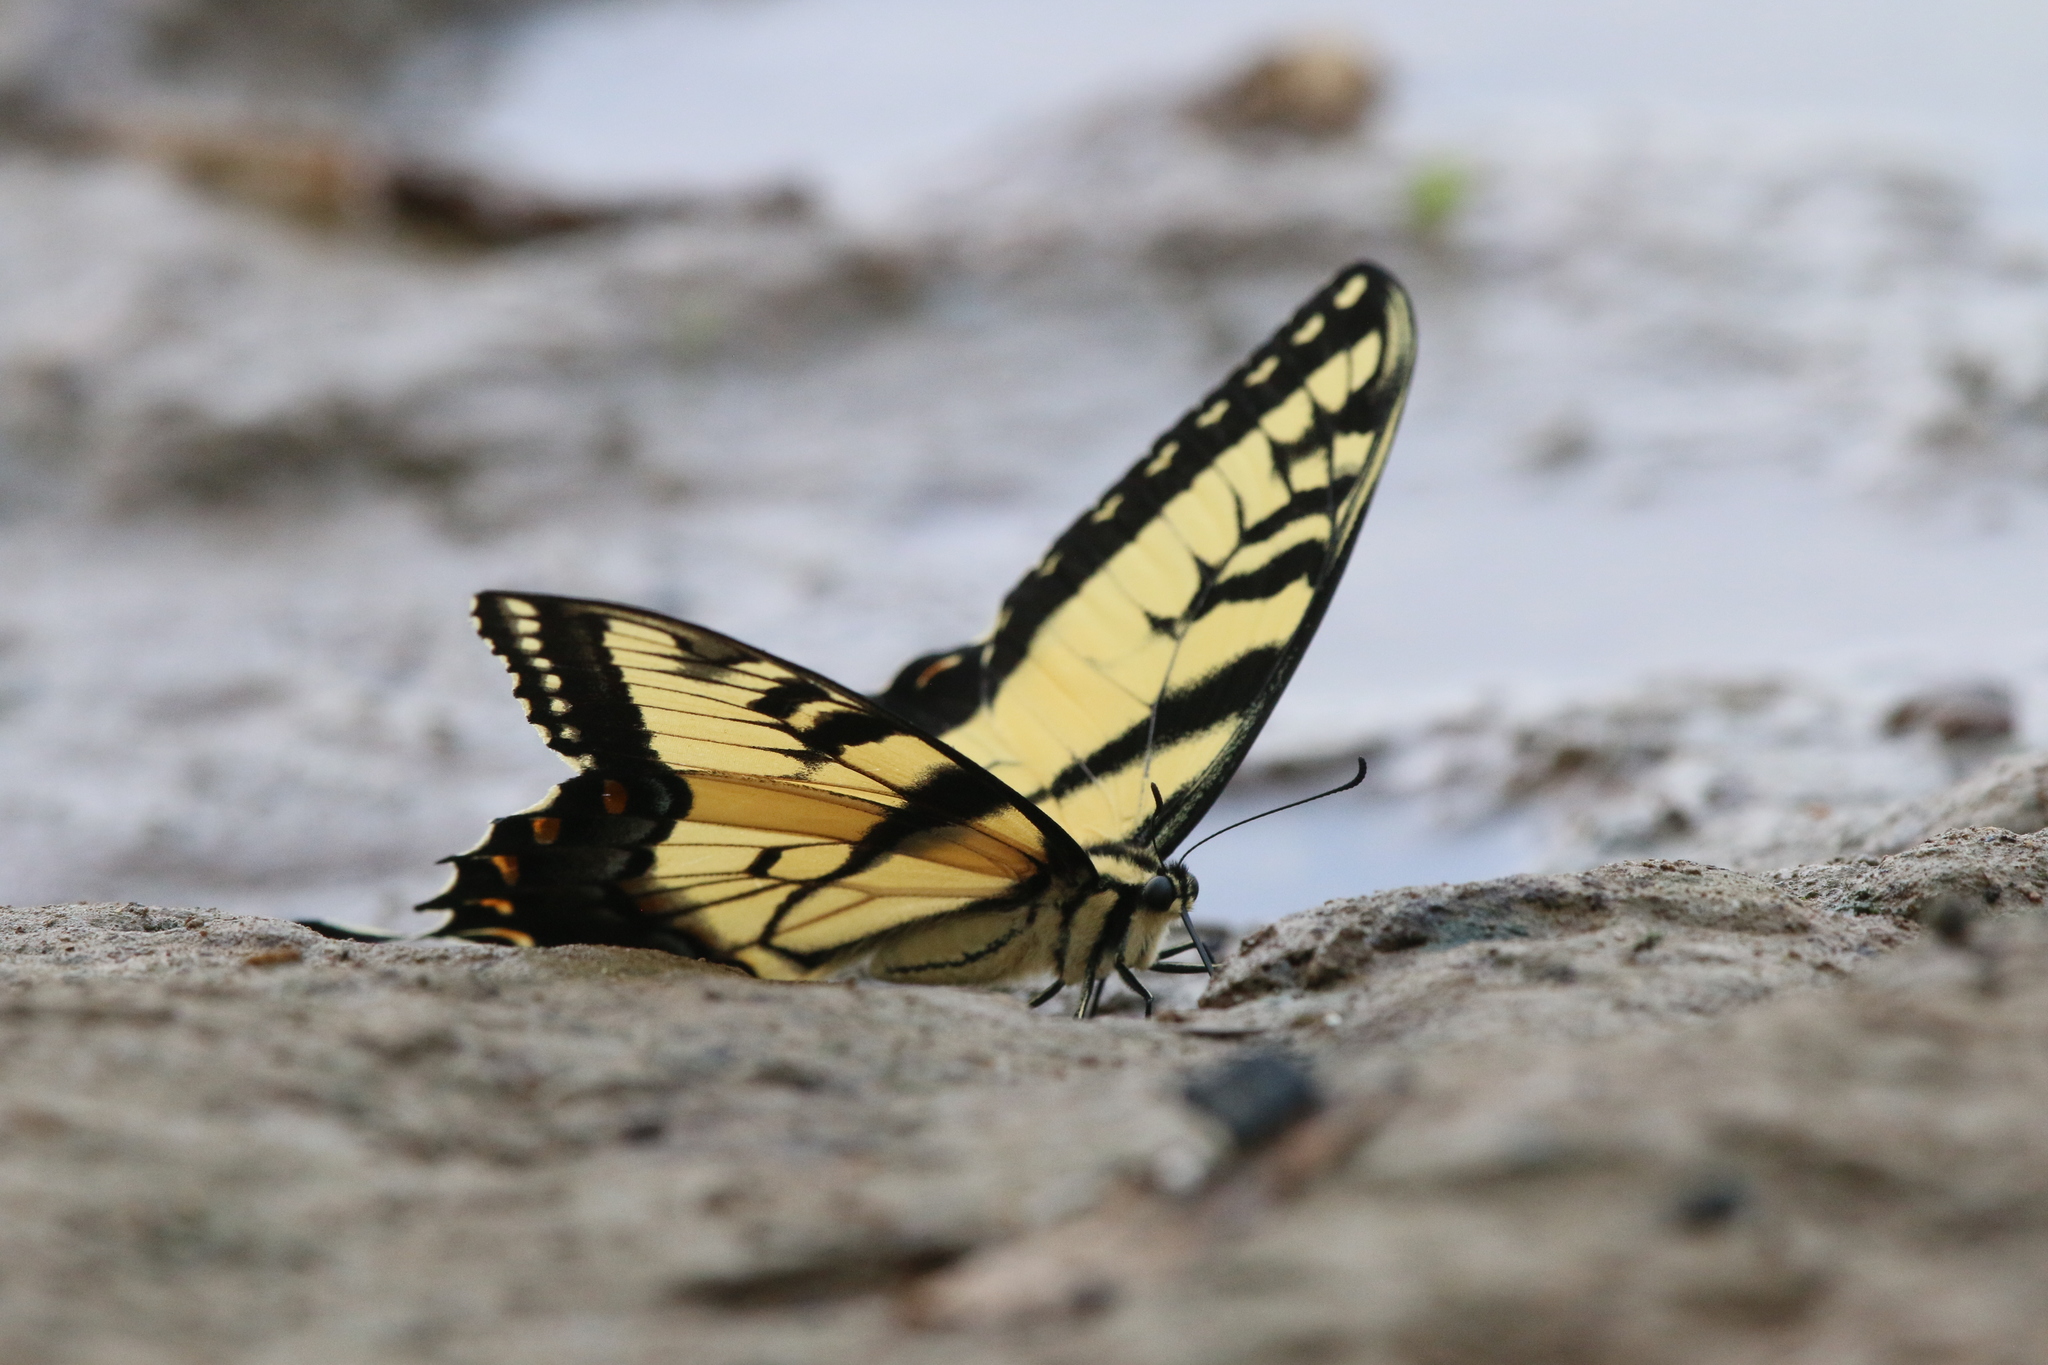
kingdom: Animalia
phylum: Arthropoda
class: Insecta
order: Lepidoptera
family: Papilionidae
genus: Papilio
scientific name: Papilio glaucus
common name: Tiger swallowtail
